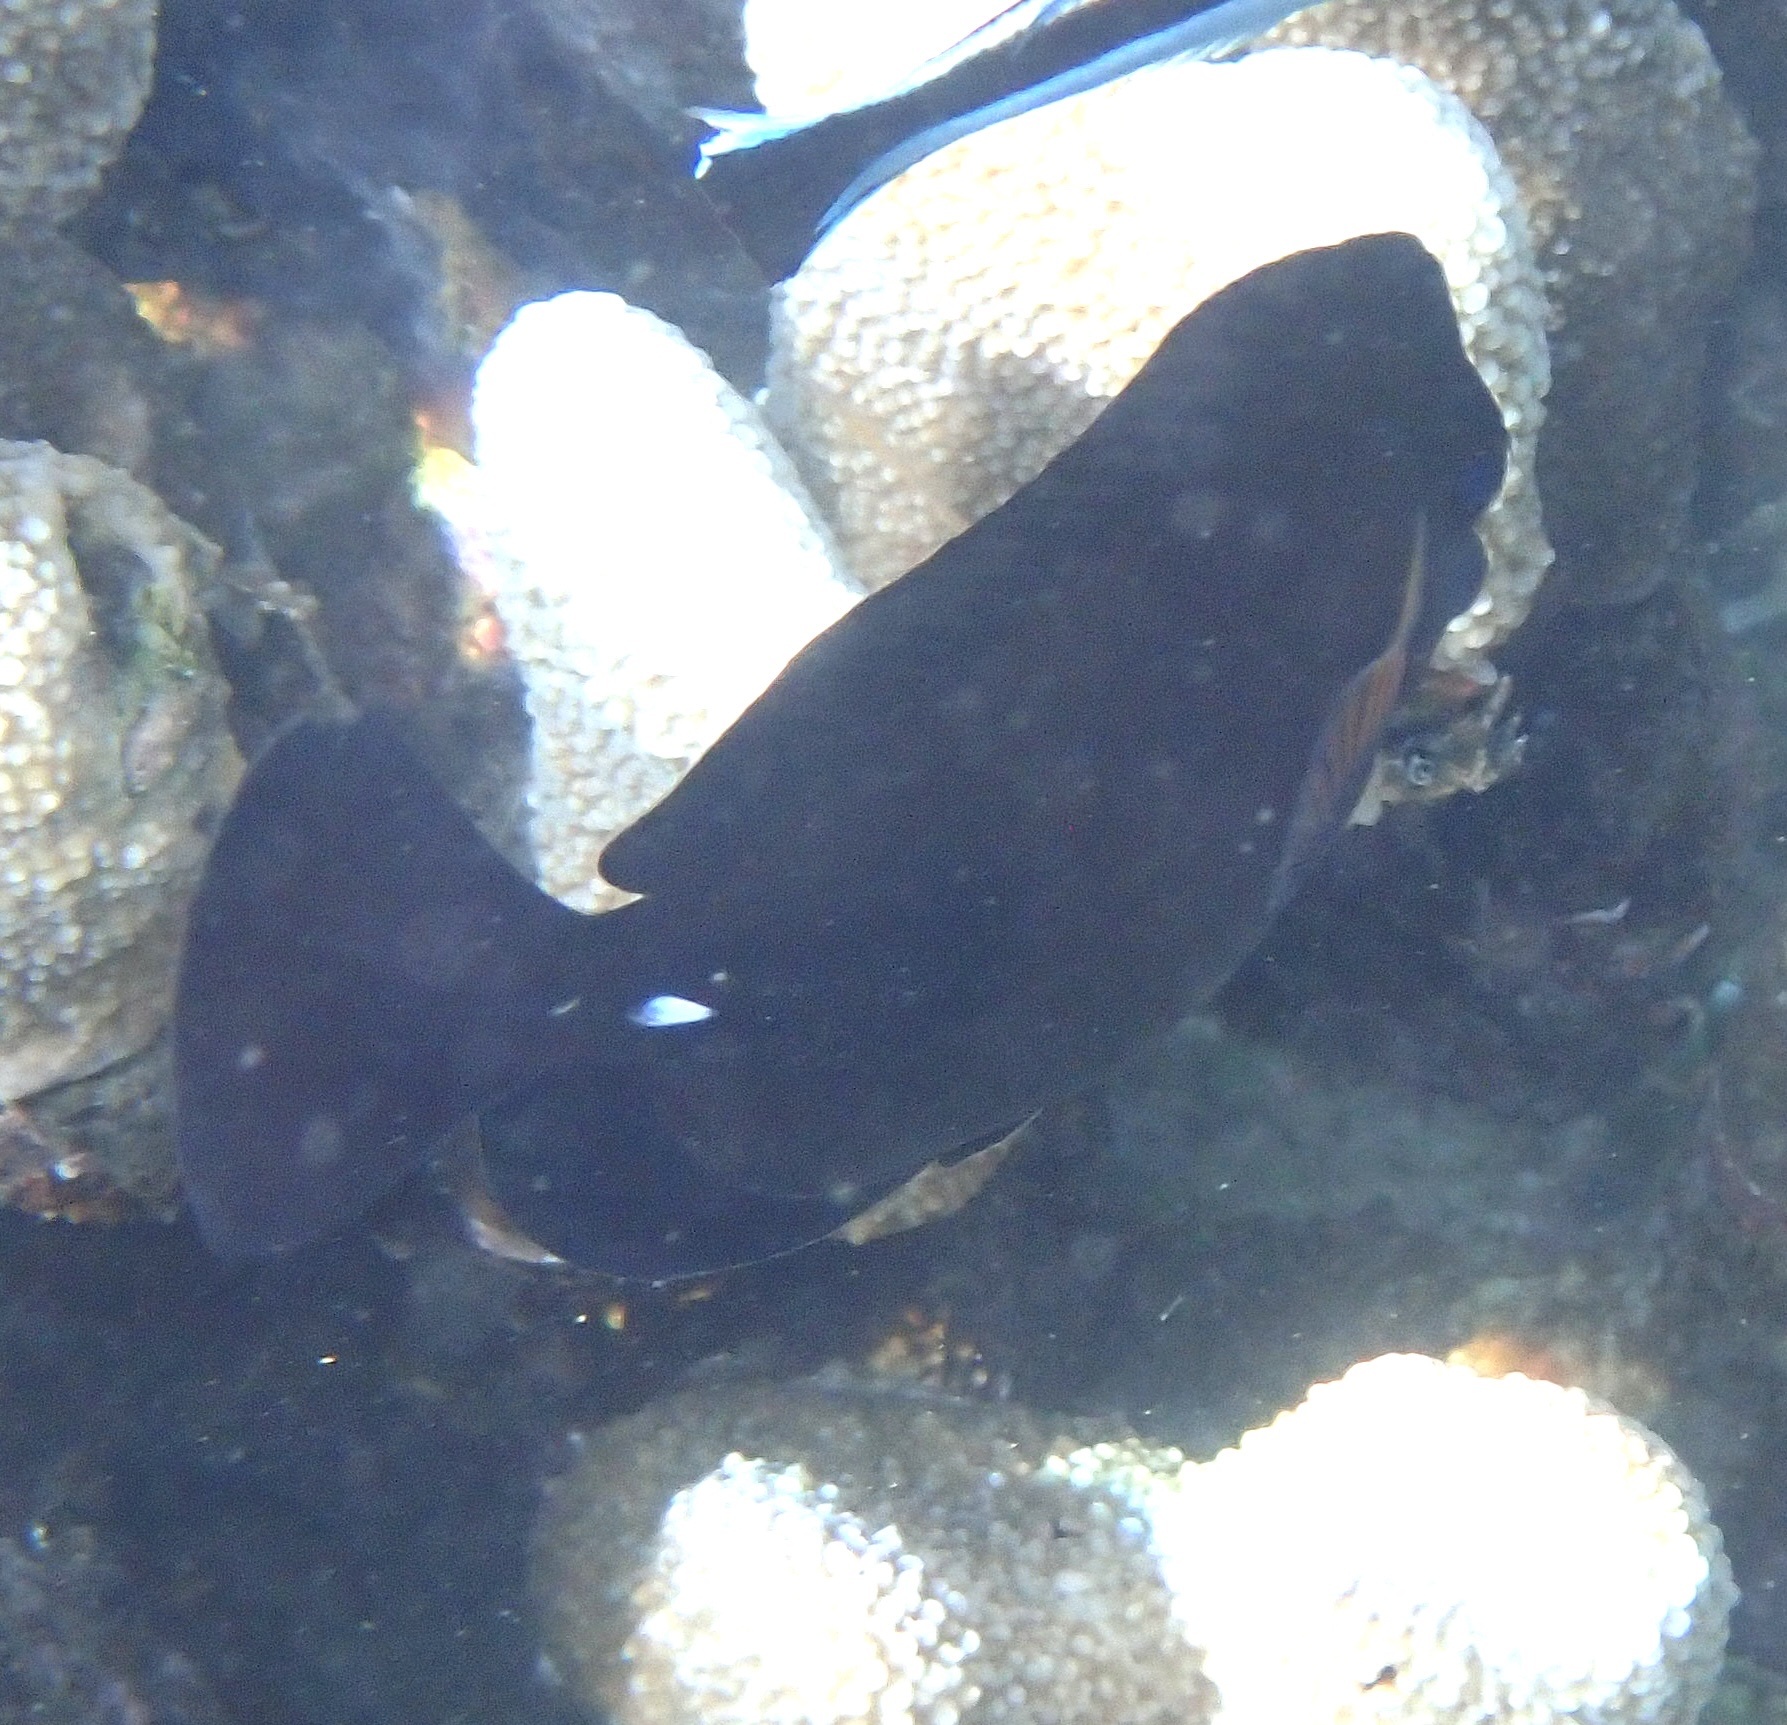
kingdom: Animalia
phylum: Chordata
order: Perciformes
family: Acanthuridae
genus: Zebrasoma
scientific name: Zebrasoma scopas
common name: Twotone tang
